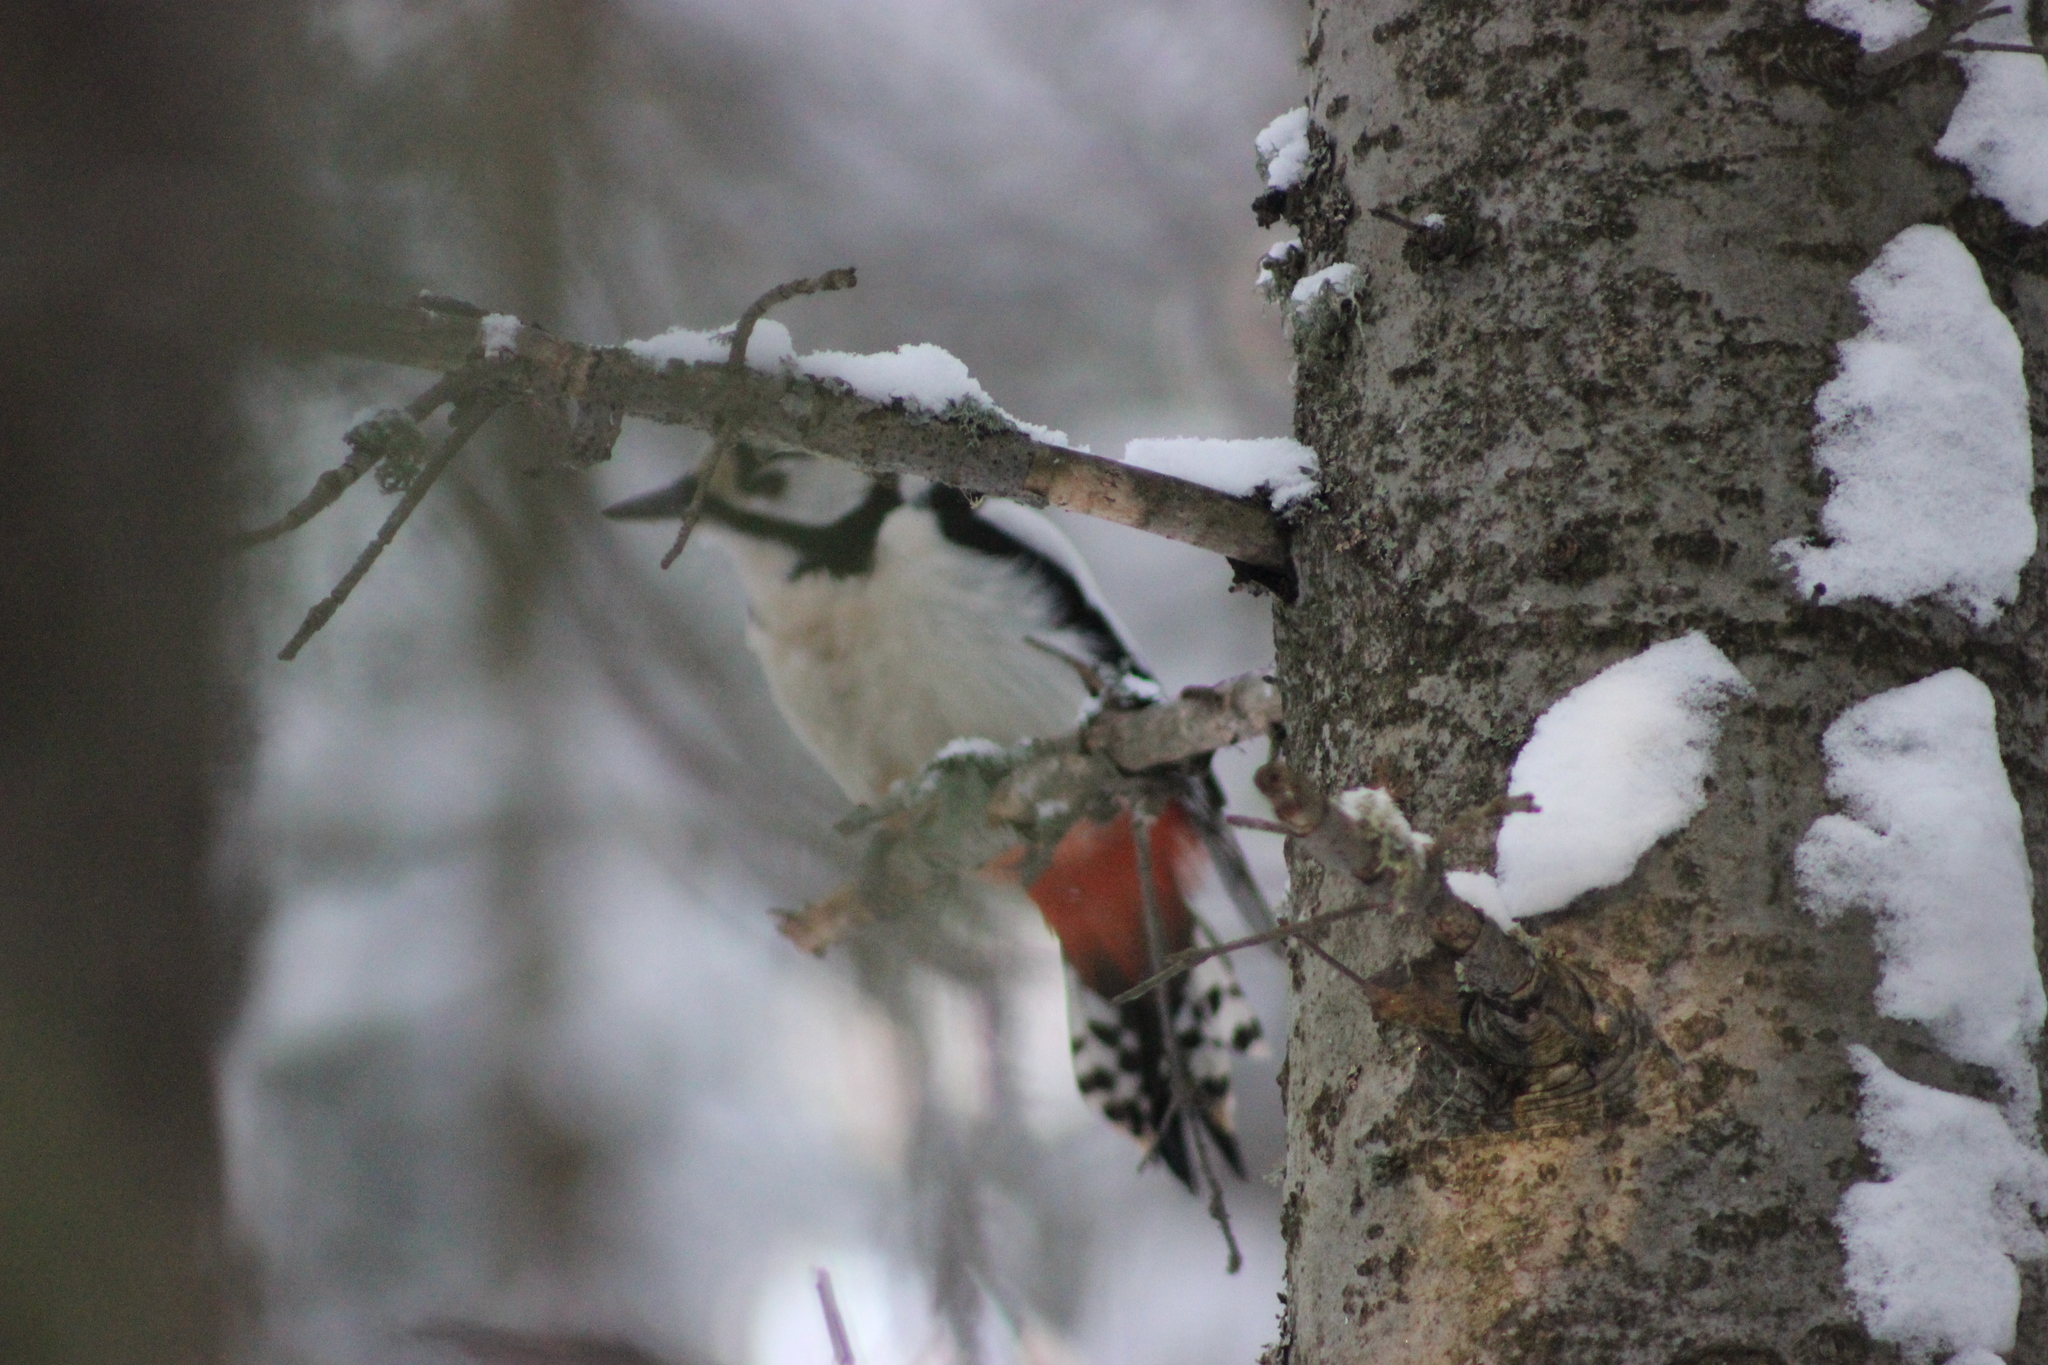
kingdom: Animalia
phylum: Chordata
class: Aves
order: Piciformes
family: Picidae
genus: Dendrocopos
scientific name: Dendrocopos major
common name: Great spotted woodpecker
